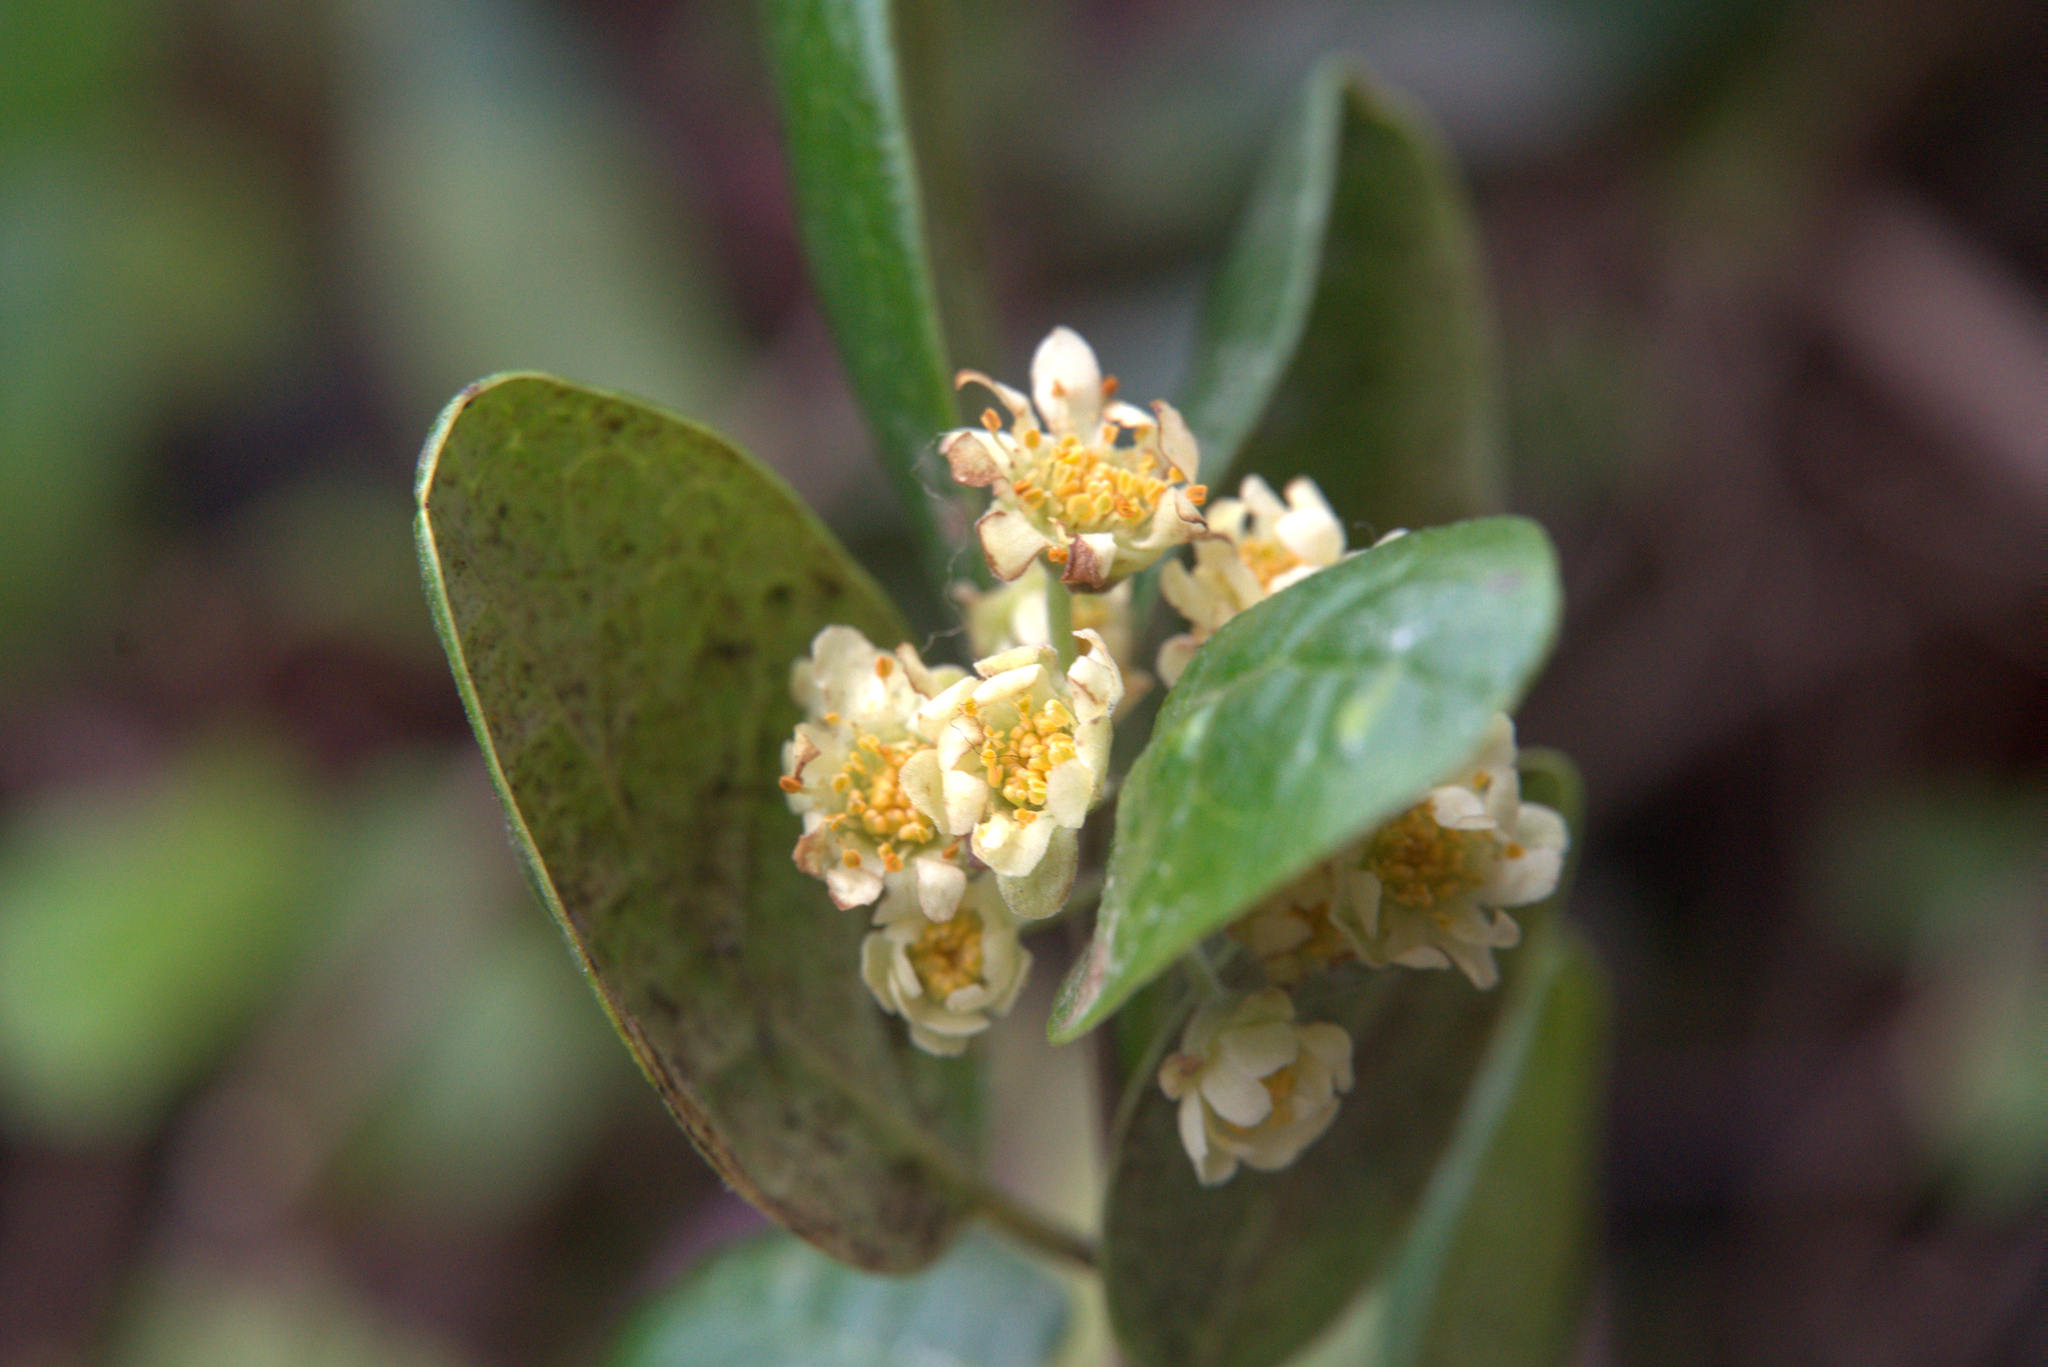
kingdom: Plantae
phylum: Tracheophyta
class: Magnoliopsida
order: Laurales
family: Monimiaceae
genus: Peumus
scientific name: Peumus boldus
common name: Boldo
